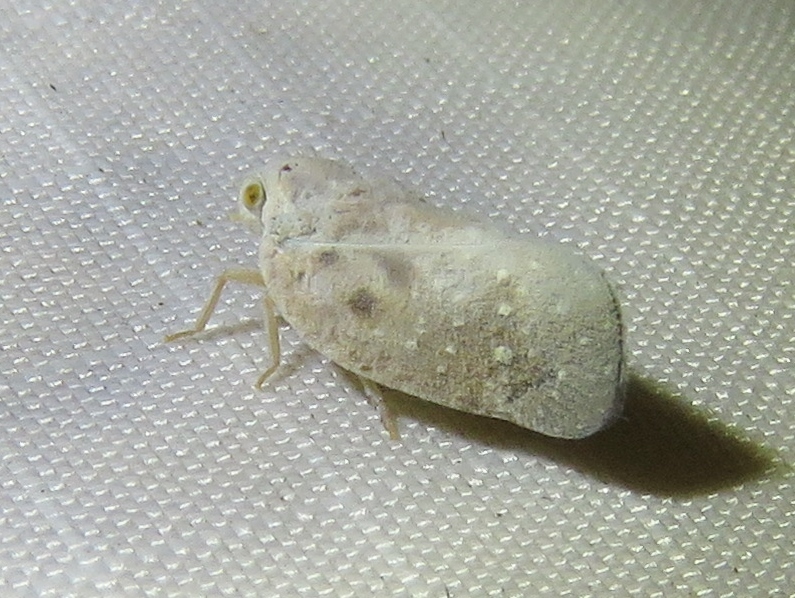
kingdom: Animalia
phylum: Arthropoda
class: Insecta
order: Hemiptera
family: Flatidae
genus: Metcalfa
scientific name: Metcalfa pruinosa
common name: Citrus flatid planthopper
